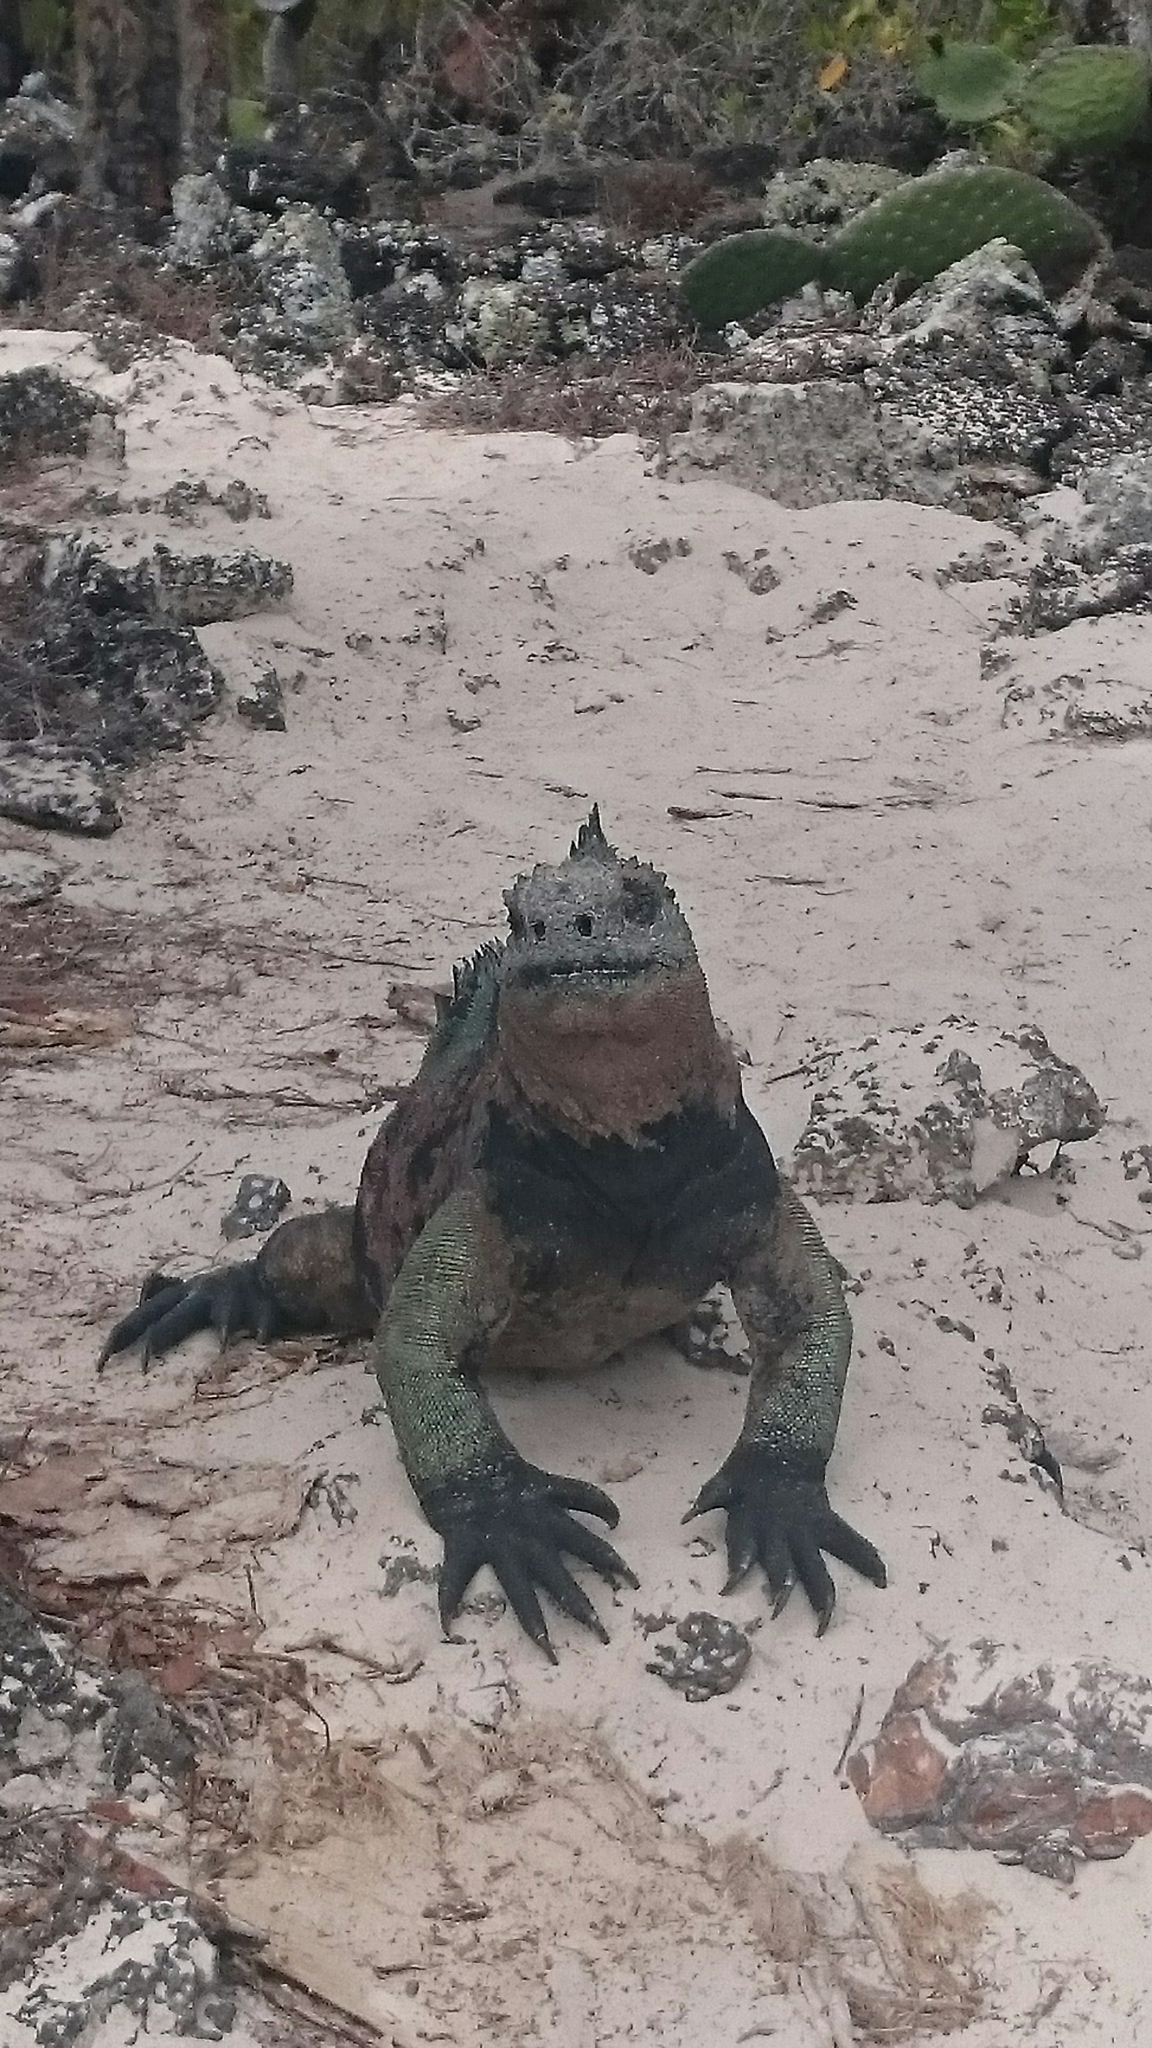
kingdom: Animalia
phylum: Chordata
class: Squamata
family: Iguanidae
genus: Amblyrhynchus
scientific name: Amblyrhynchus cristatus
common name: Marine iguana
